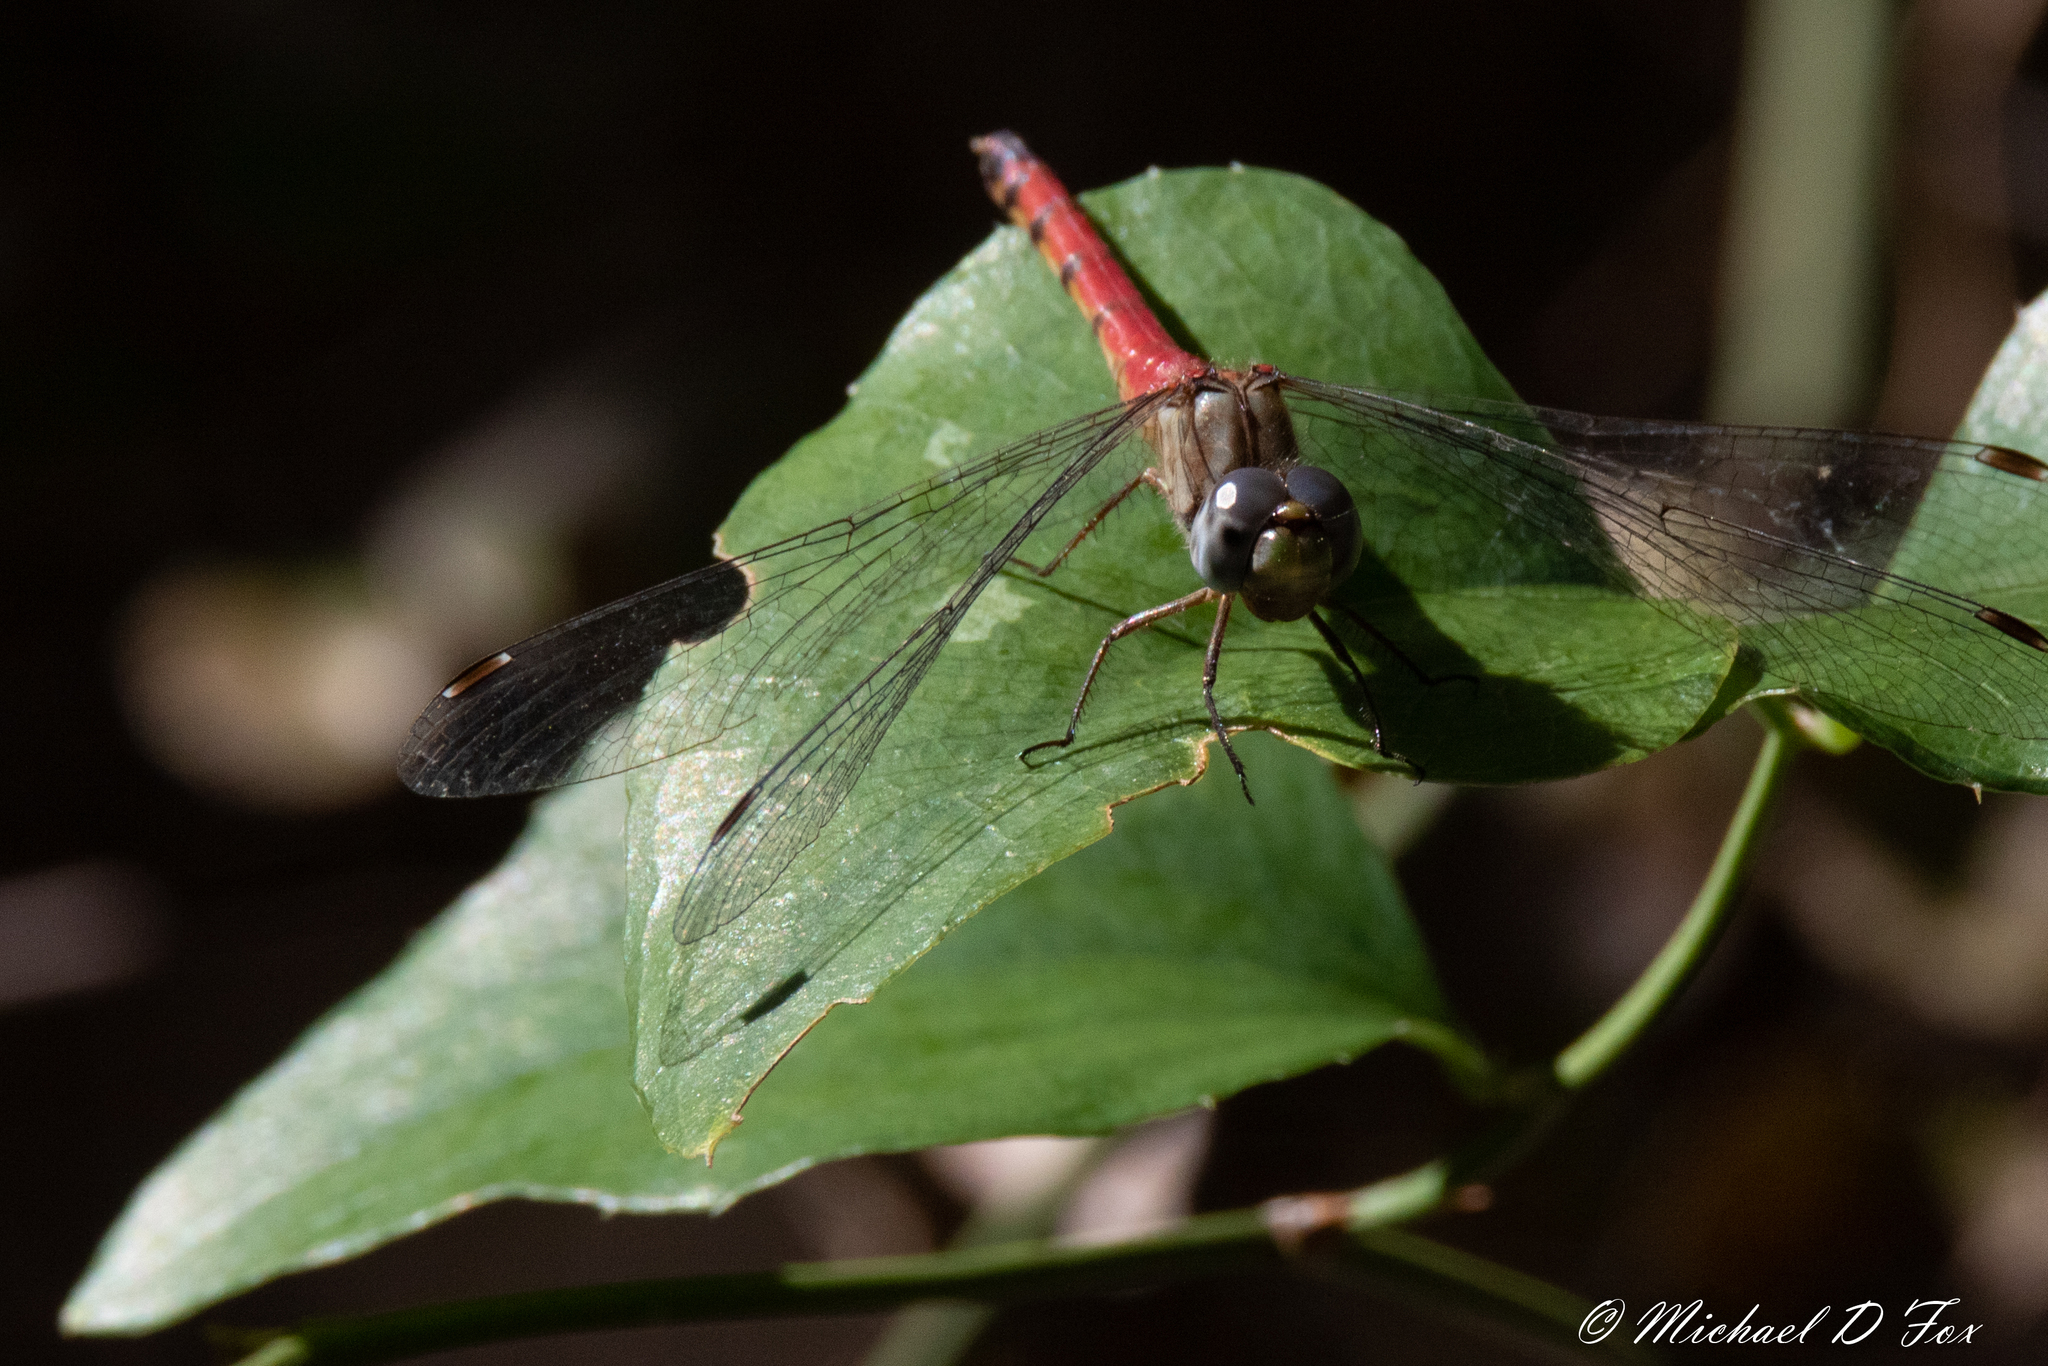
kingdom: Animalia
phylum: Arthropoda
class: Insecta
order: Odonata
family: Libellulidae
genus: Sympetrum
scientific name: Sympetrum ambiguum
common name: Blue-faced meadowhawk
